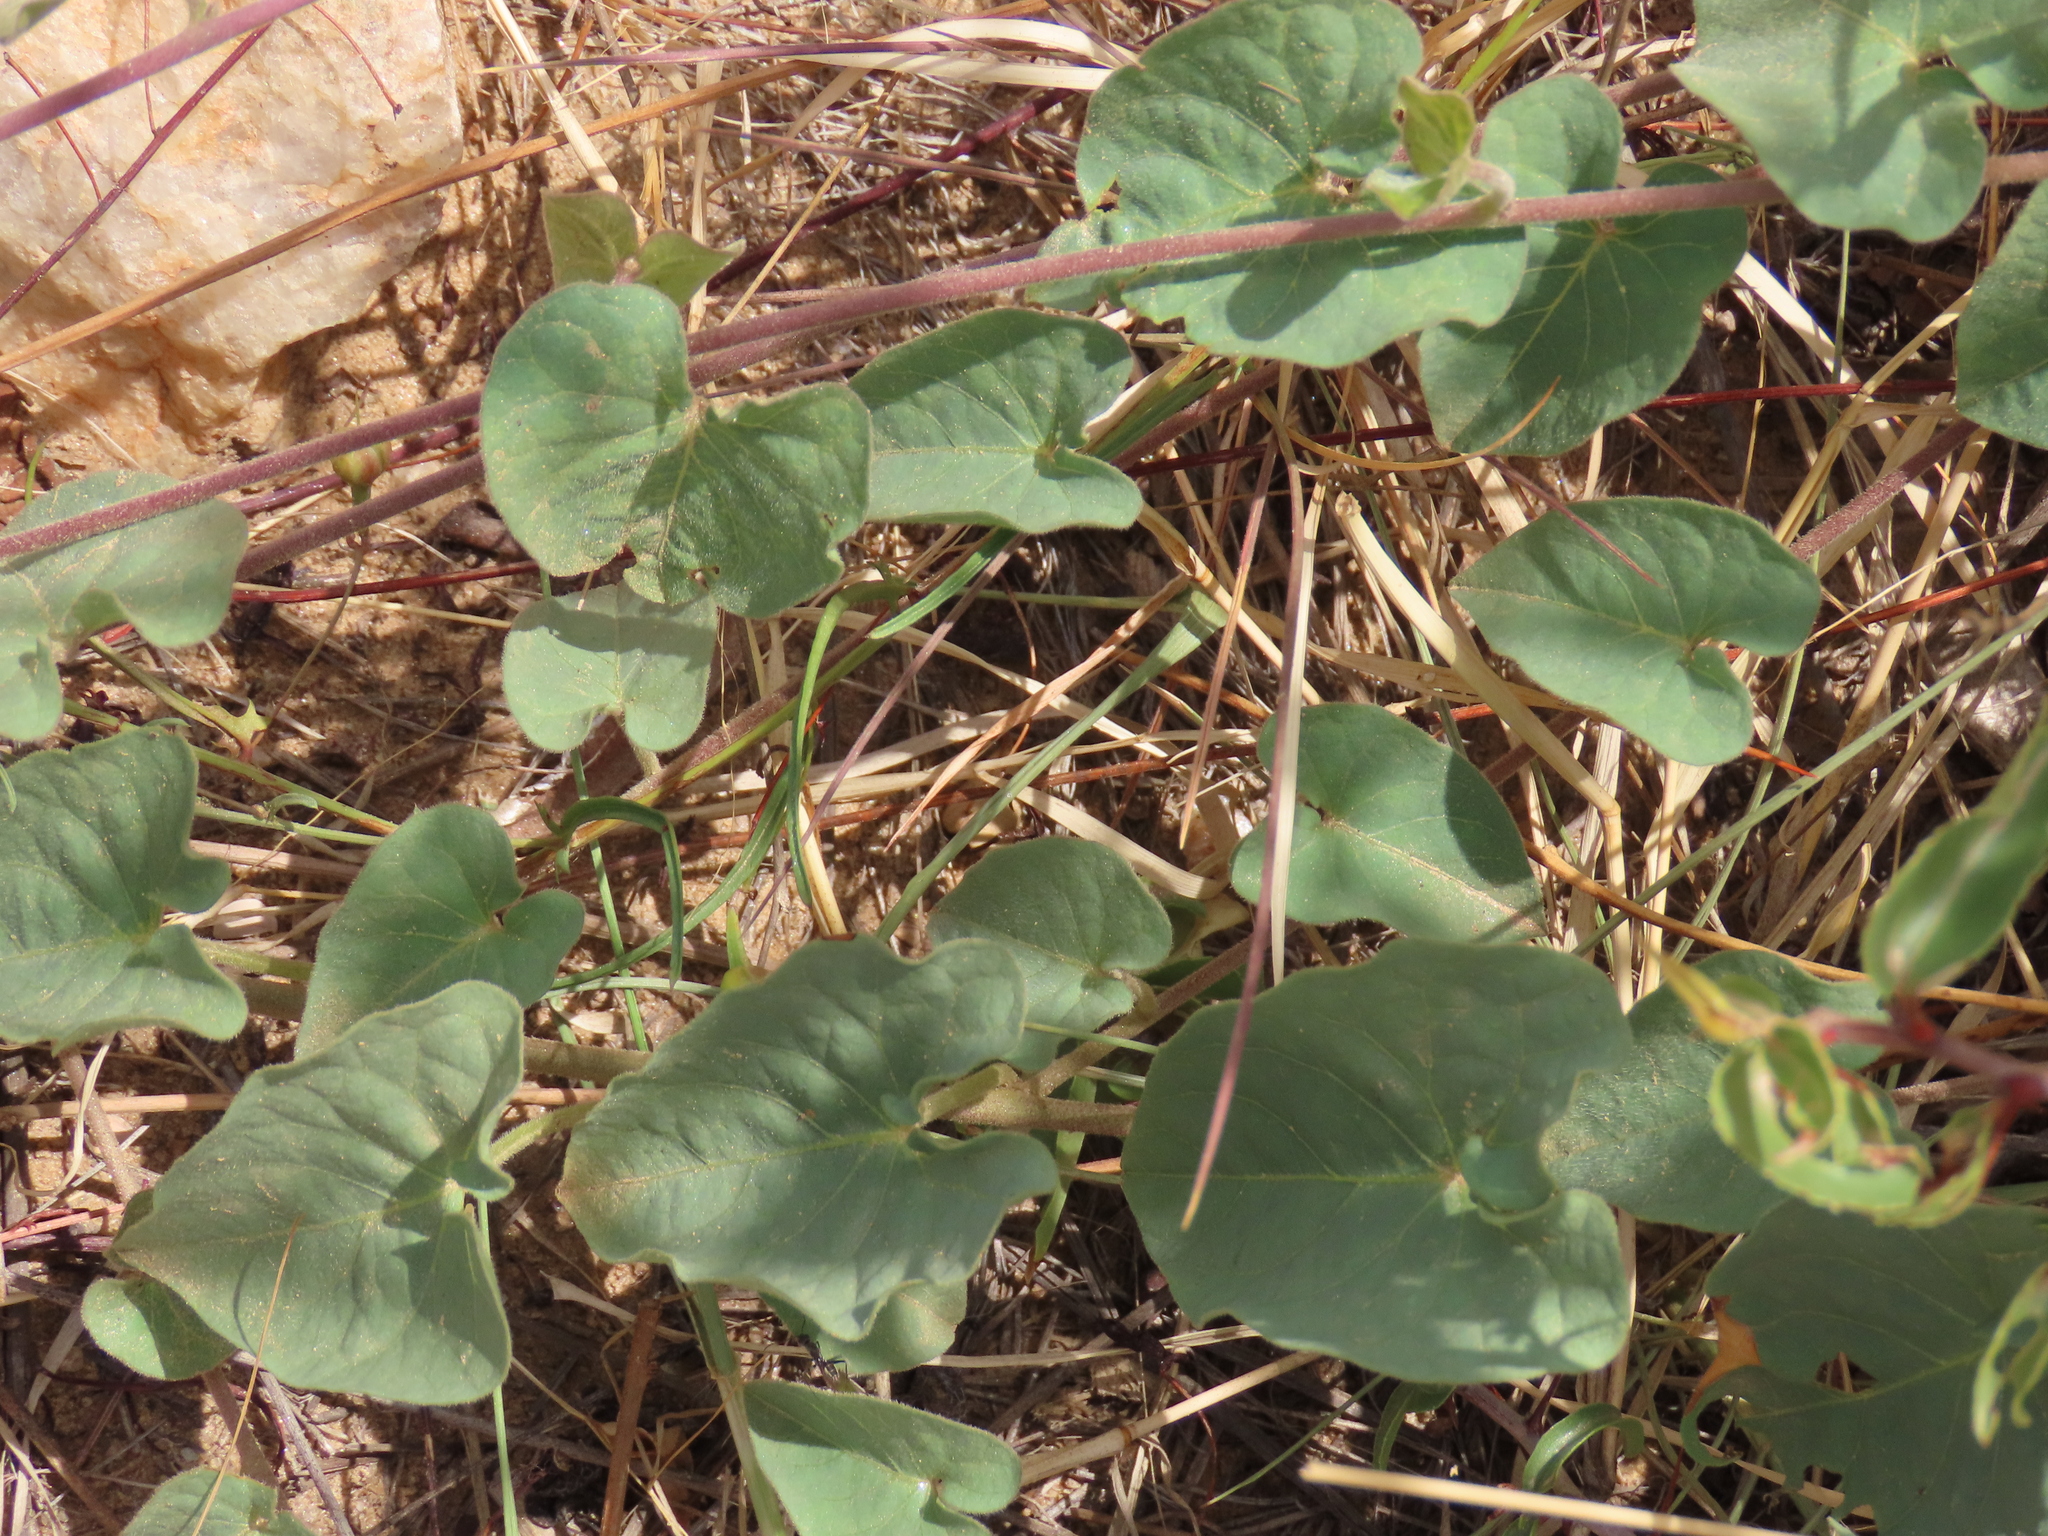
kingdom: Plantae
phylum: Tracheophyta
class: Magnoliopsida
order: Solanales
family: Convolvulaceae
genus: Ipomoea
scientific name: Ipomoea obscura
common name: Obscure morning-glory
